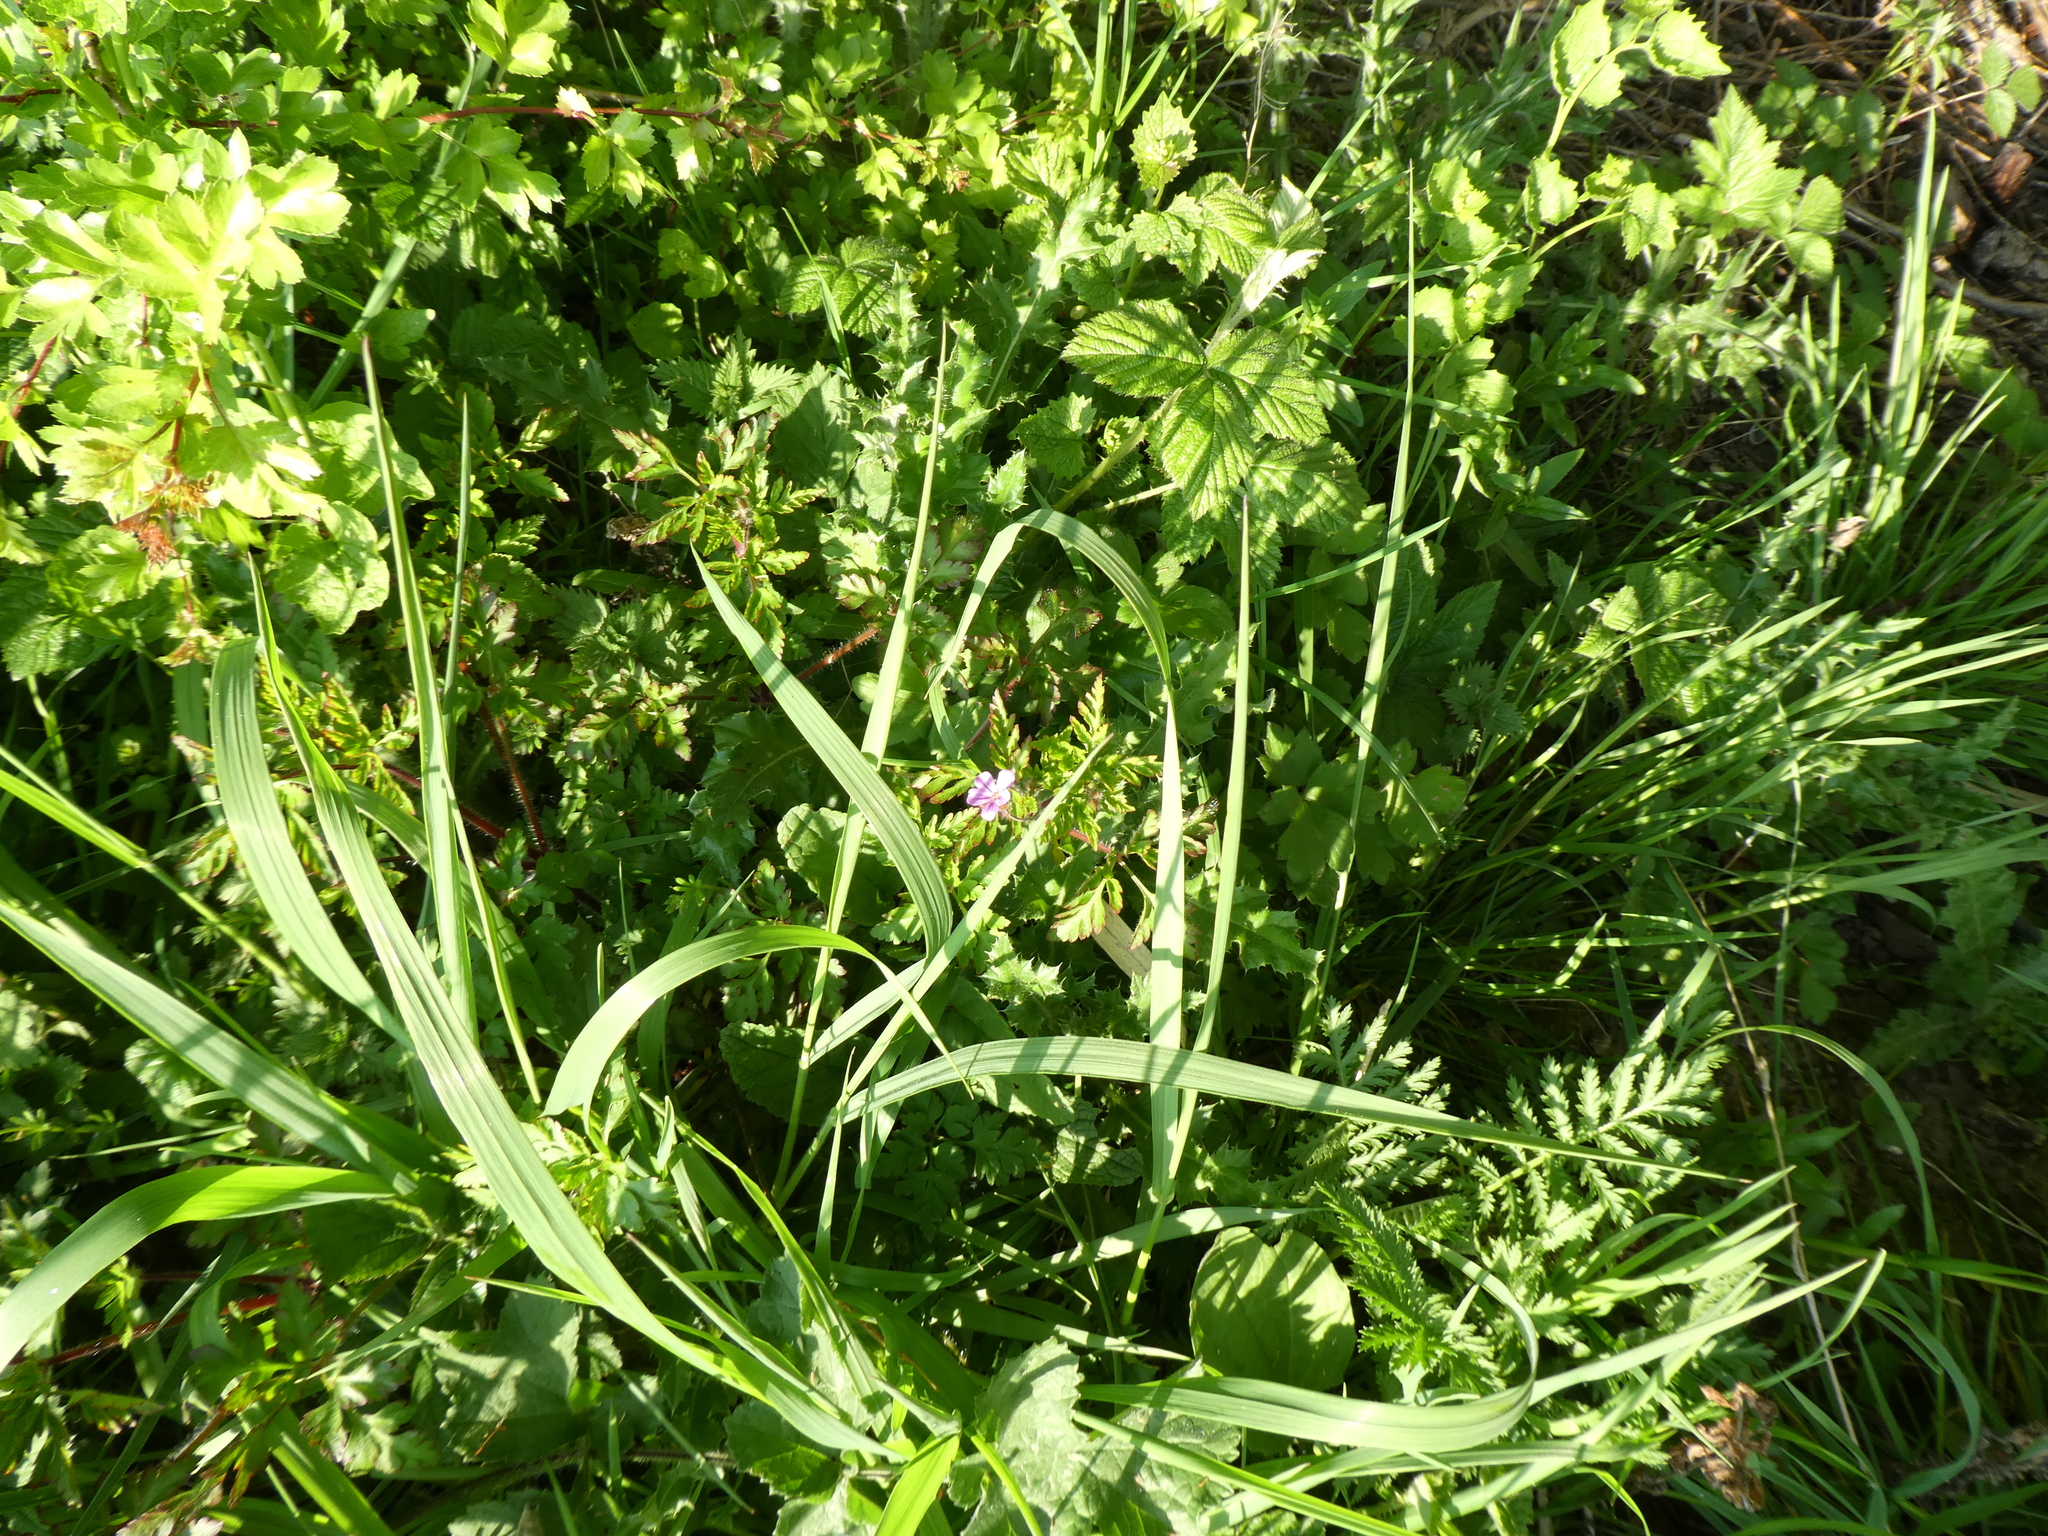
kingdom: Plantae
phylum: Tracheophyta
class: Magnoliopsida
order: Geraniales
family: Geraniaceae
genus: Geranium
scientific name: Geranium robertianum
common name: Herb-robert
